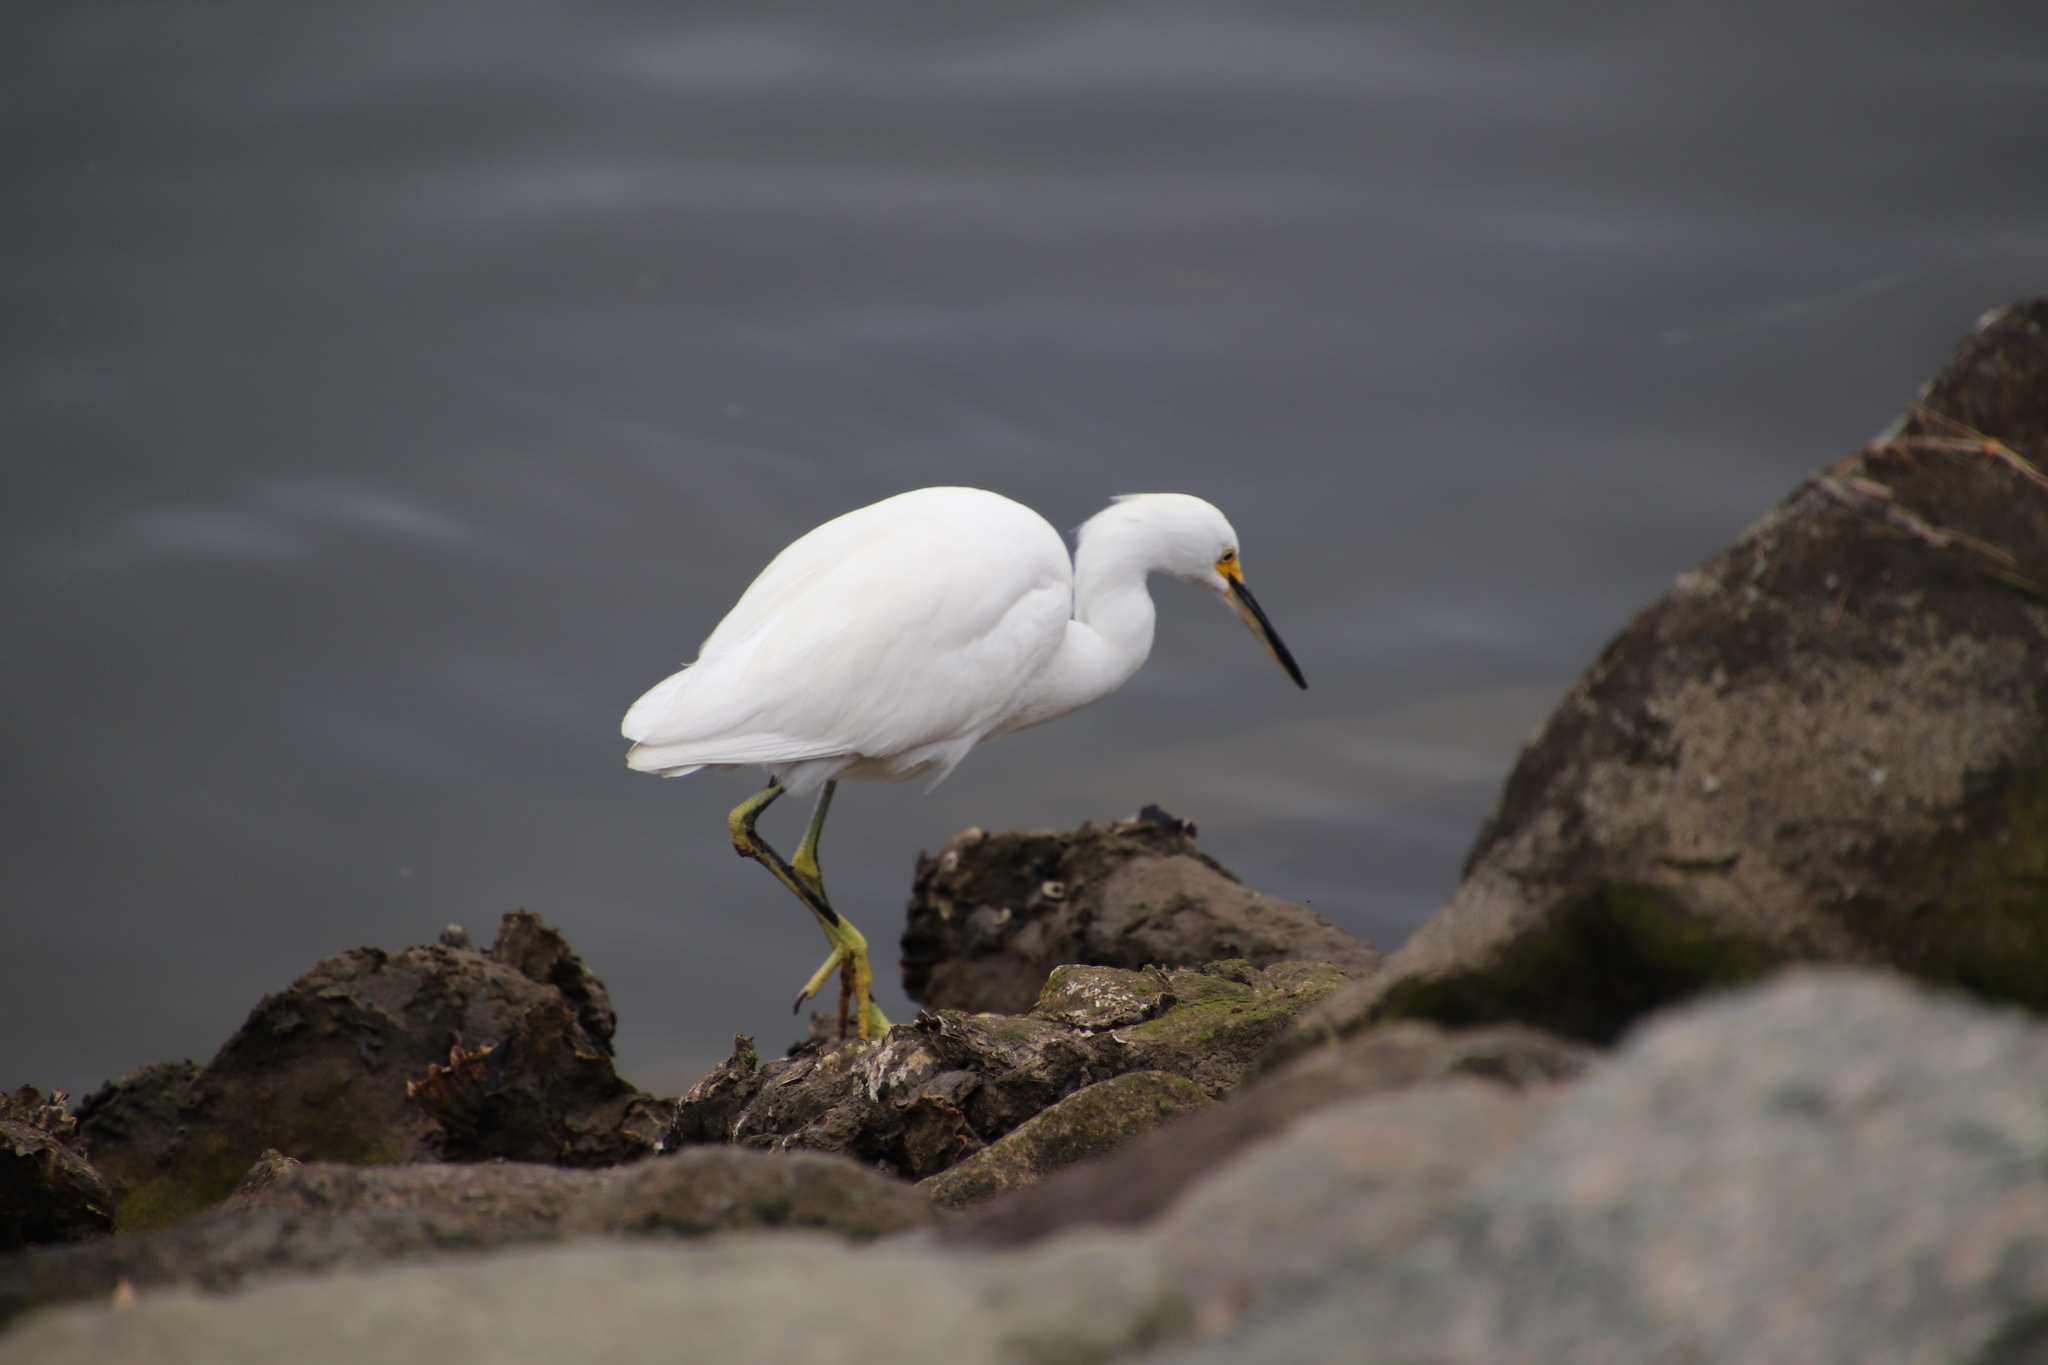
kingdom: Animalia
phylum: Chordata
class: Aves
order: Pelecaniformes
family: Ardeidae
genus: Egretta
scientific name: Egretta thula
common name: Snowy egret
